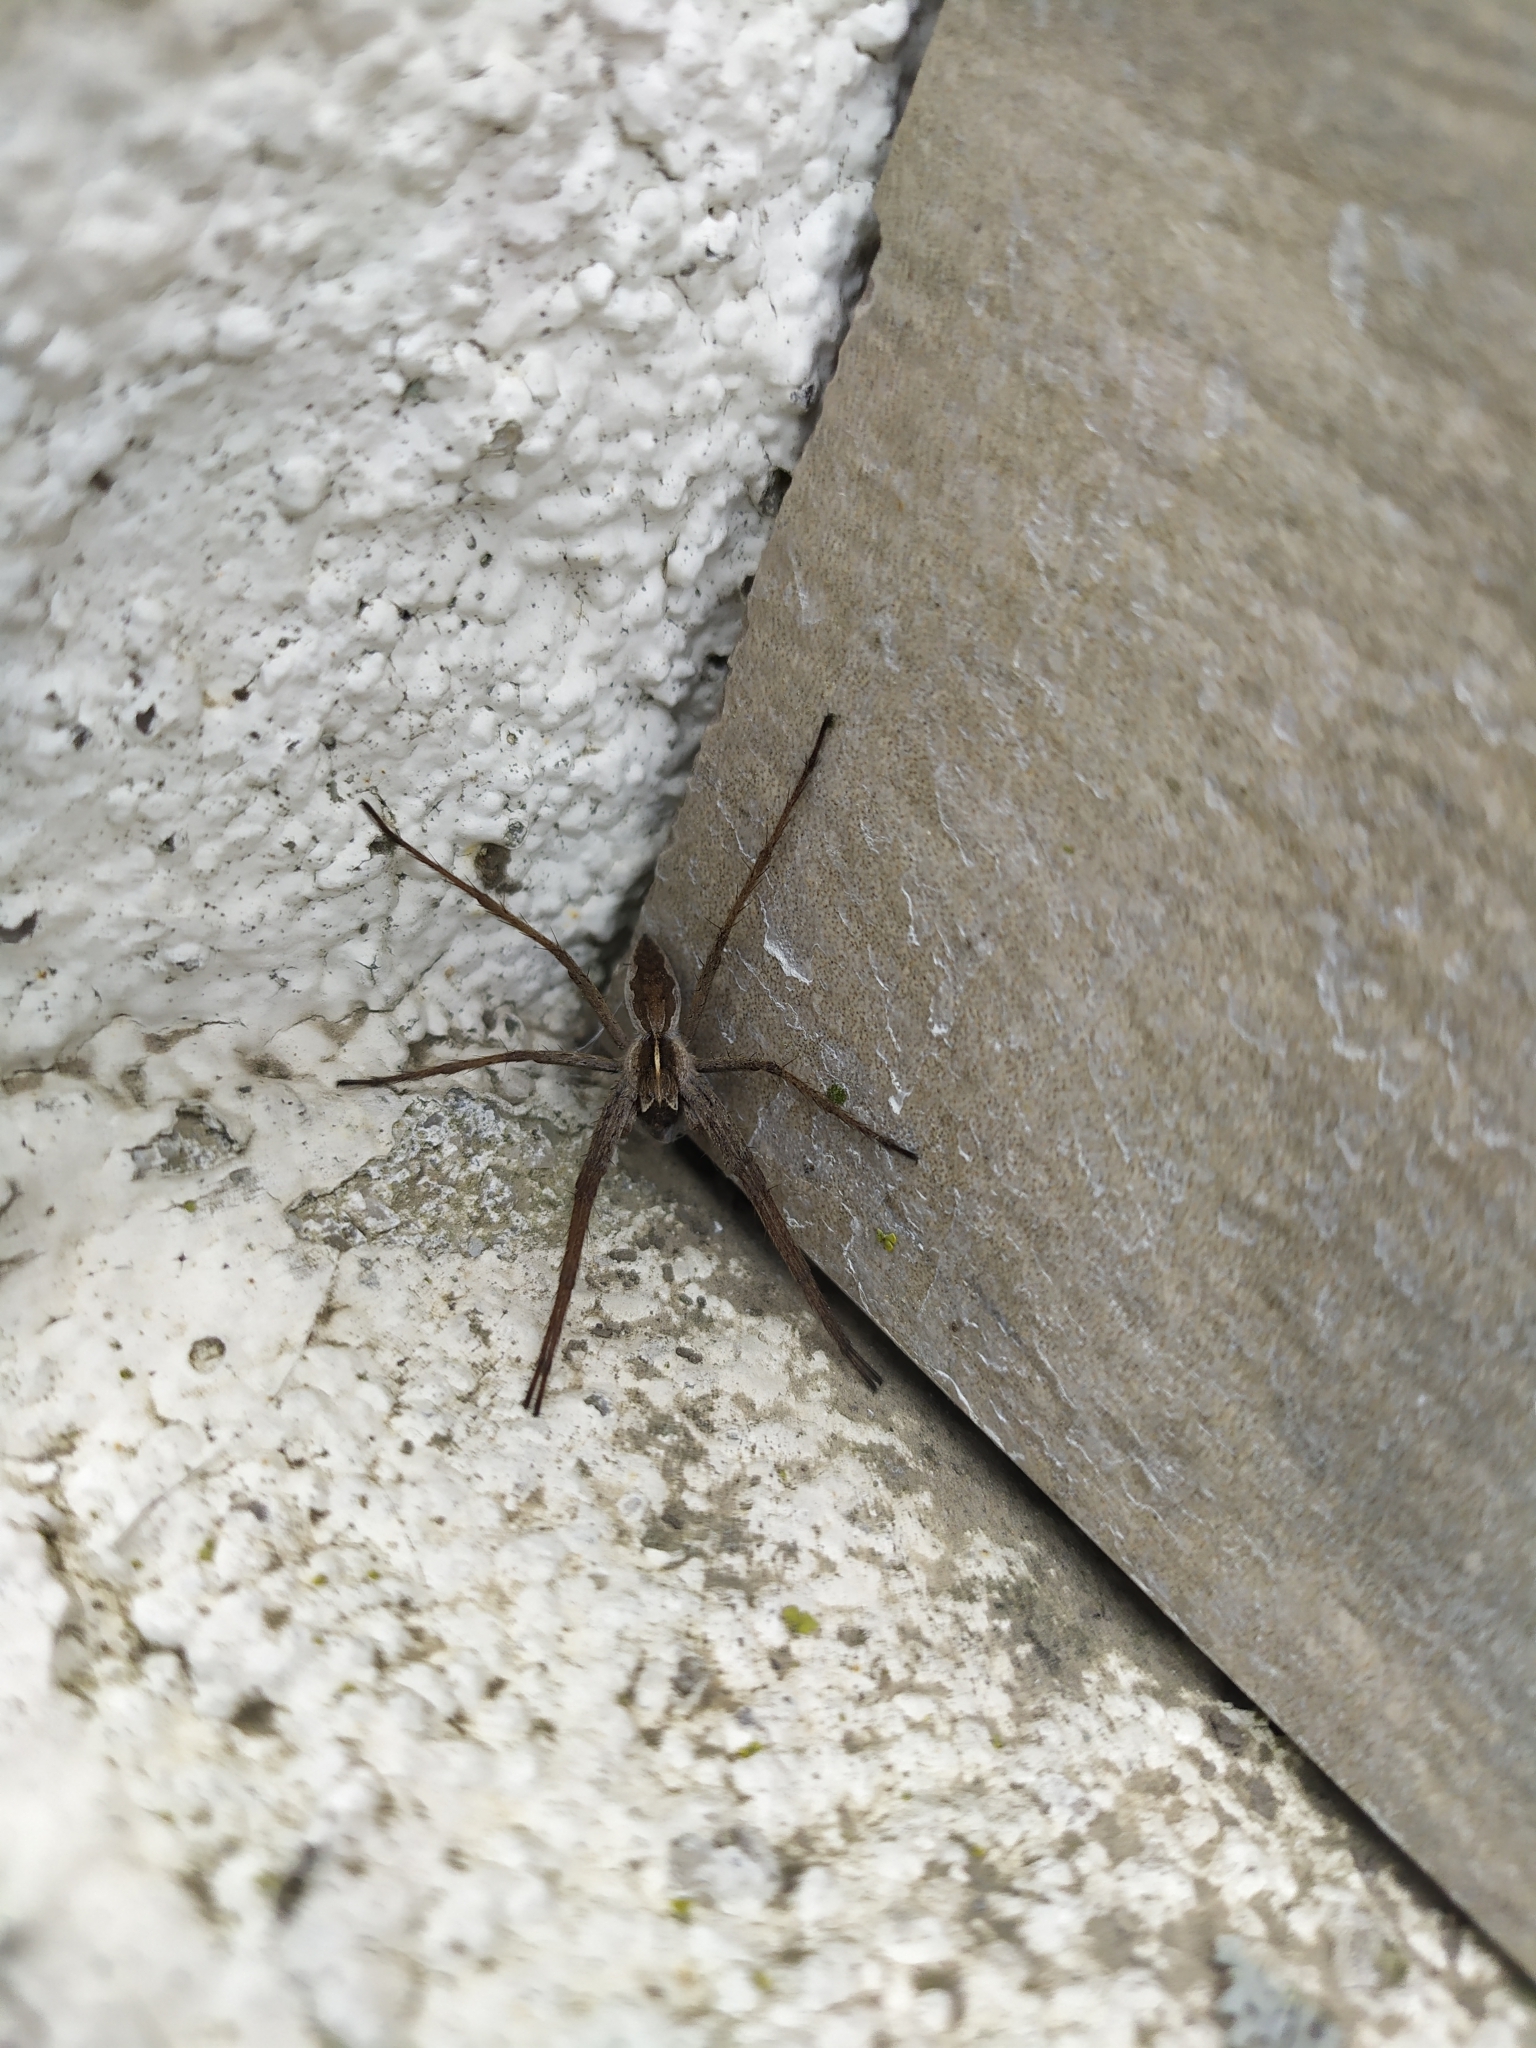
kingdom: Animalia
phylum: Arthropoda
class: Arachnida
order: Araneae
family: Pisauridae
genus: Pisaura
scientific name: Pisaura
